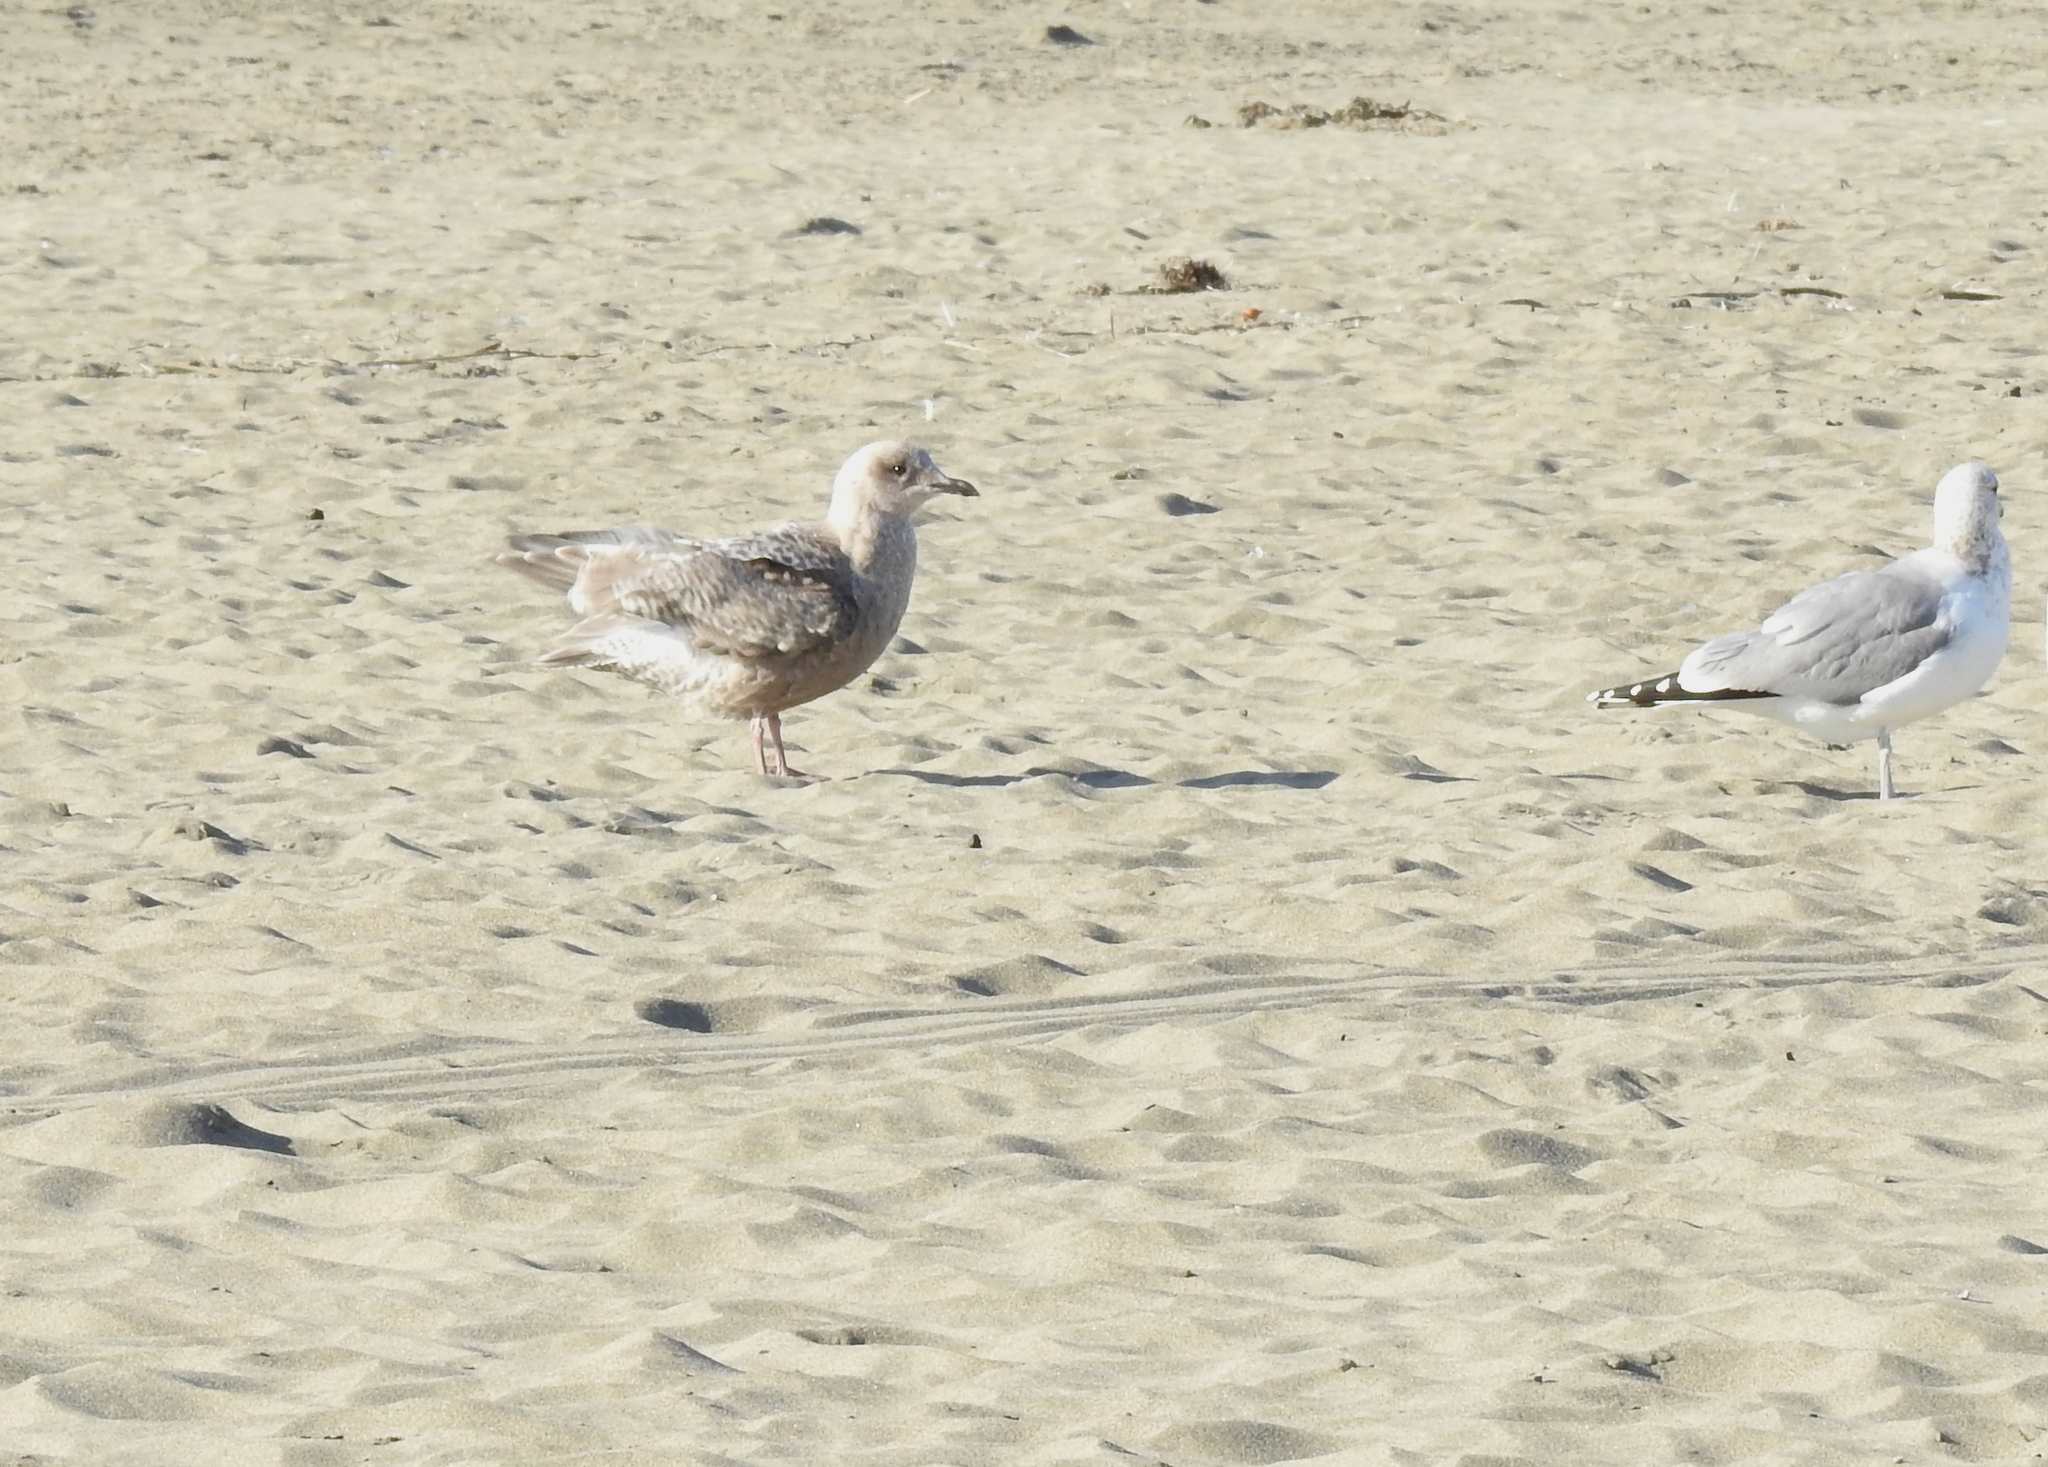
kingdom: Animalia
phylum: Chordata
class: Aves
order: Charadriiformes
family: Laridae
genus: Larus
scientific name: Larus glaucoides
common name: Iceland gull
